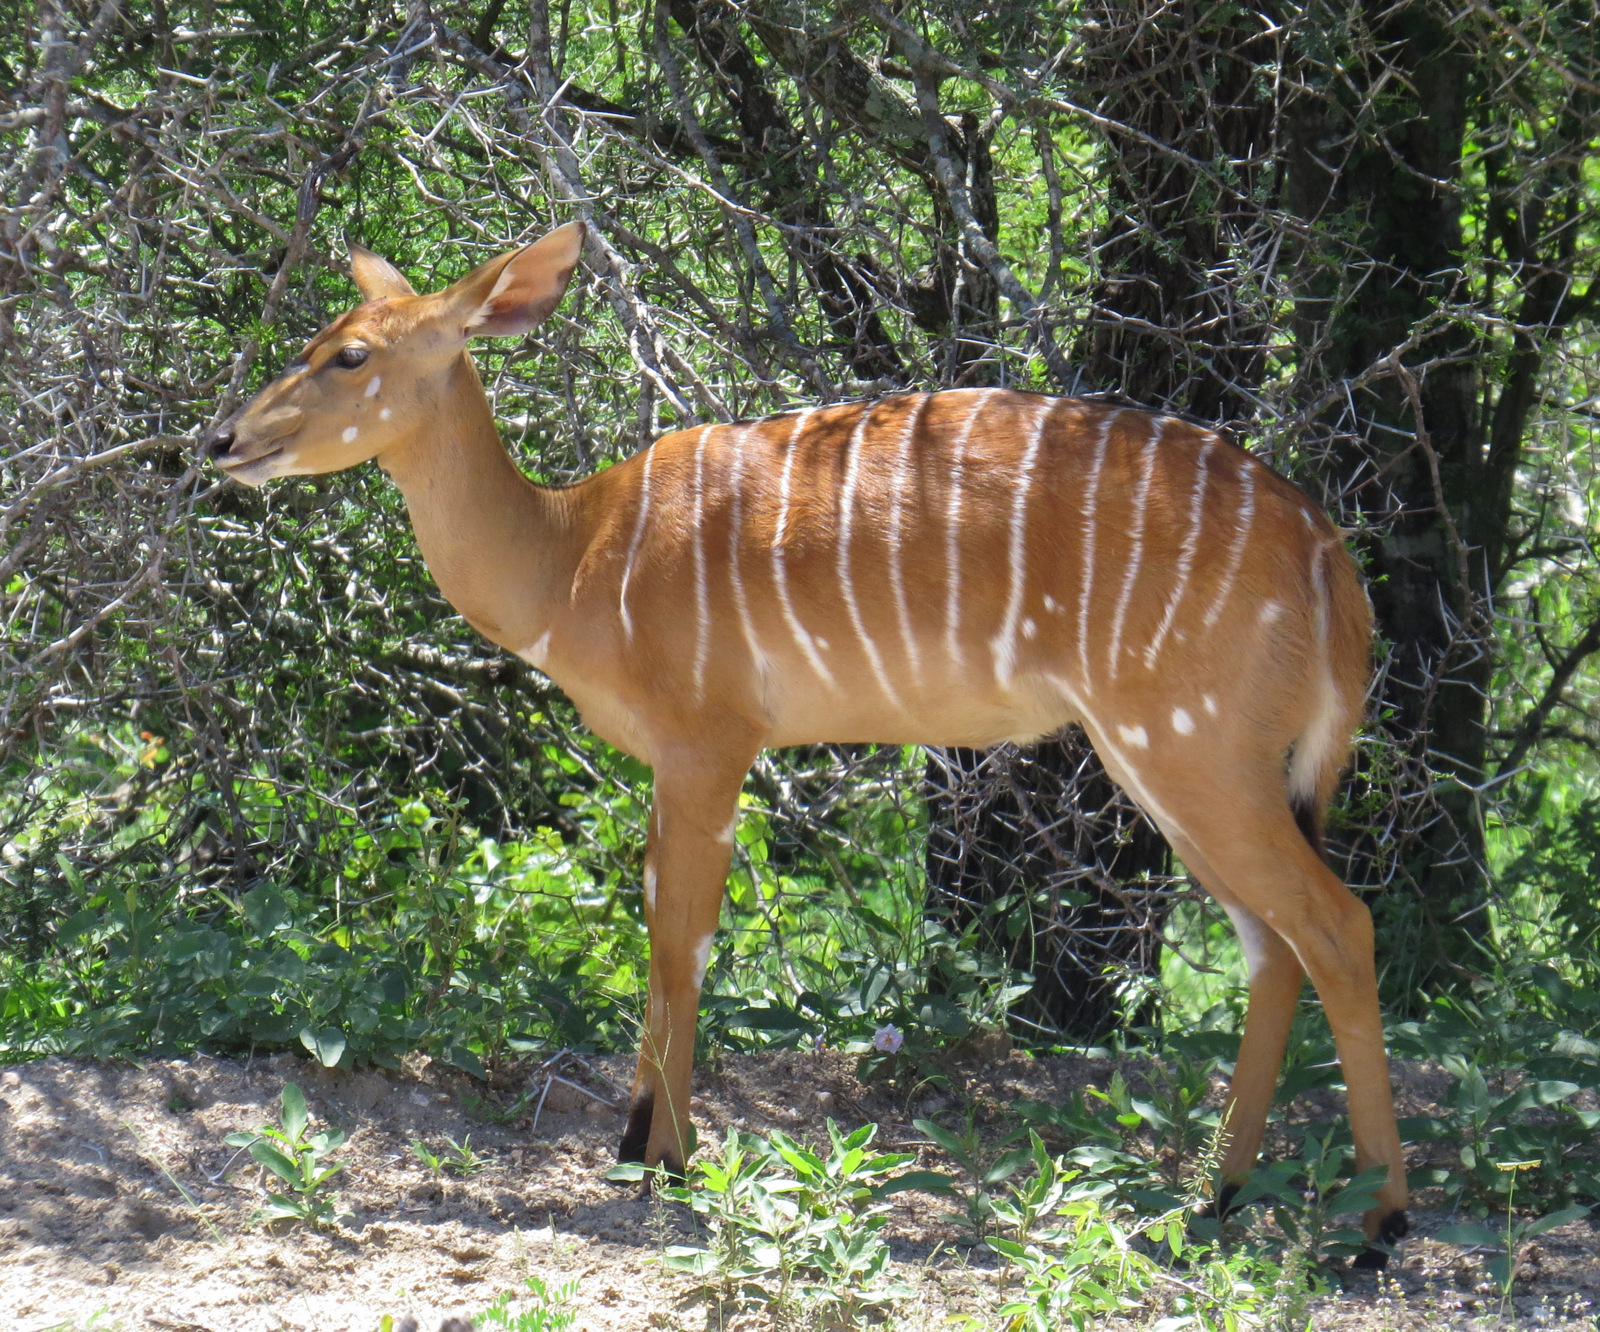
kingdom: Animalia
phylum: Chordata
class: Mammalia
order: Artiodactyla
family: Bovidae
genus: Tragelaphus
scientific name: Tragelaphus angasii
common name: Nyala
